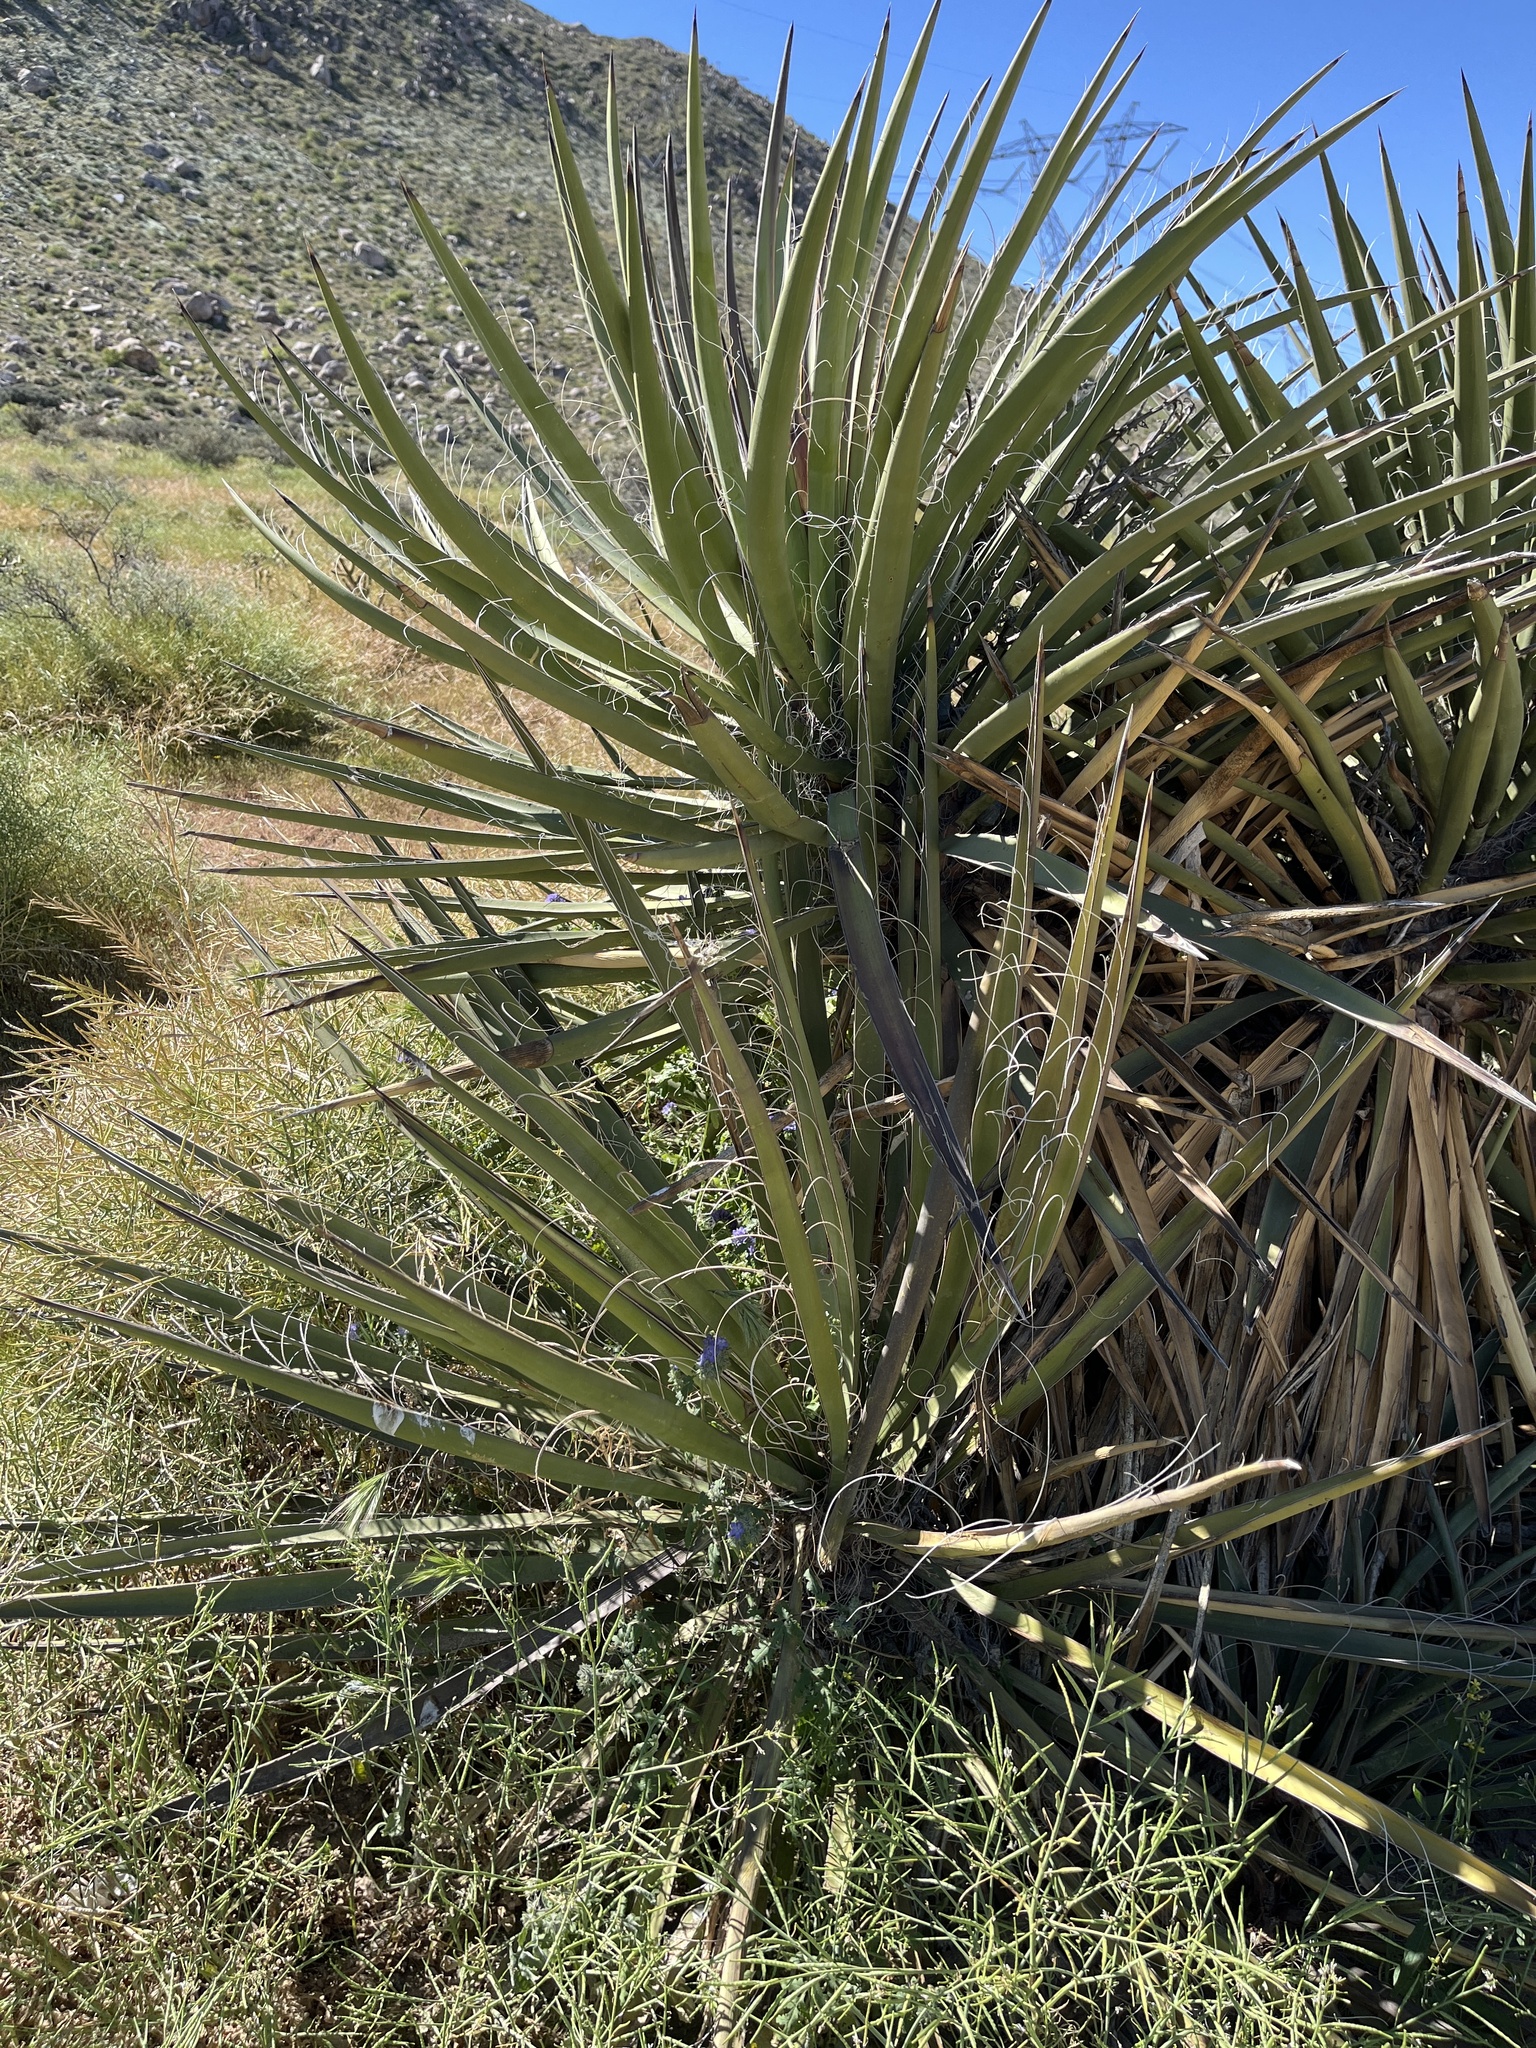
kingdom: Plantae
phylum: Tracheophyta
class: Liliopsida
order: Asparagales
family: Asparagaceae
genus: Yucca
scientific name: Yucca schidigera
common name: Mojave yucca
